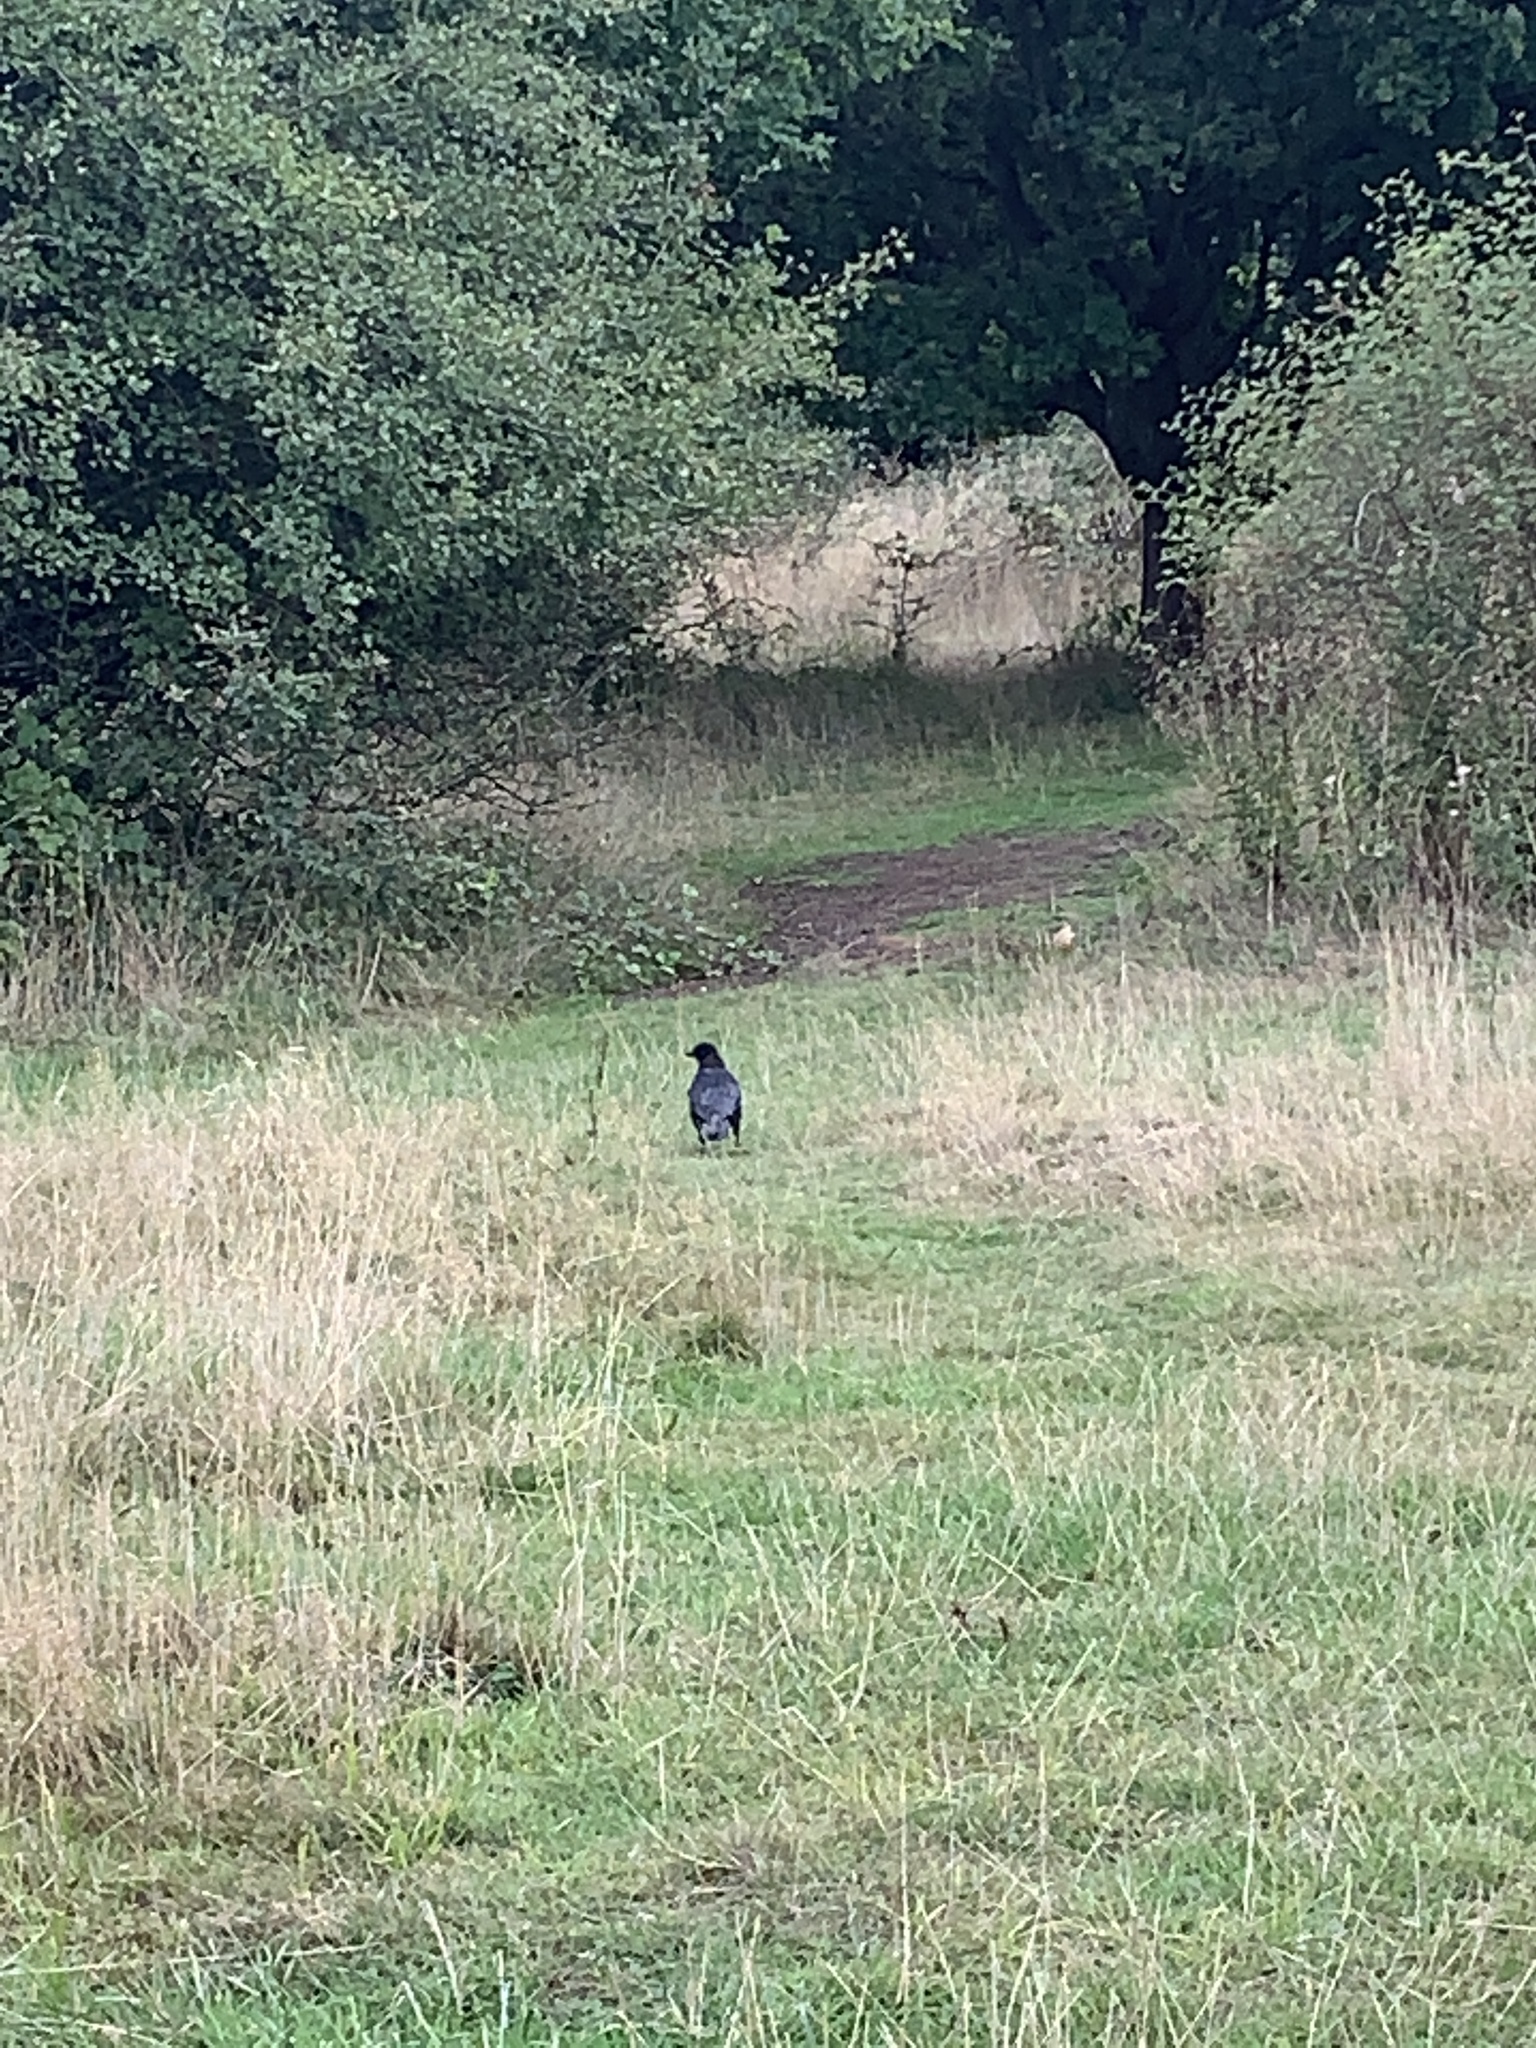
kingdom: Animalia
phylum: Chordata
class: Aves
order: Passeriformes
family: Corvidae
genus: Corvus
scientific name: Corvus corone
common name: Carrion crow
